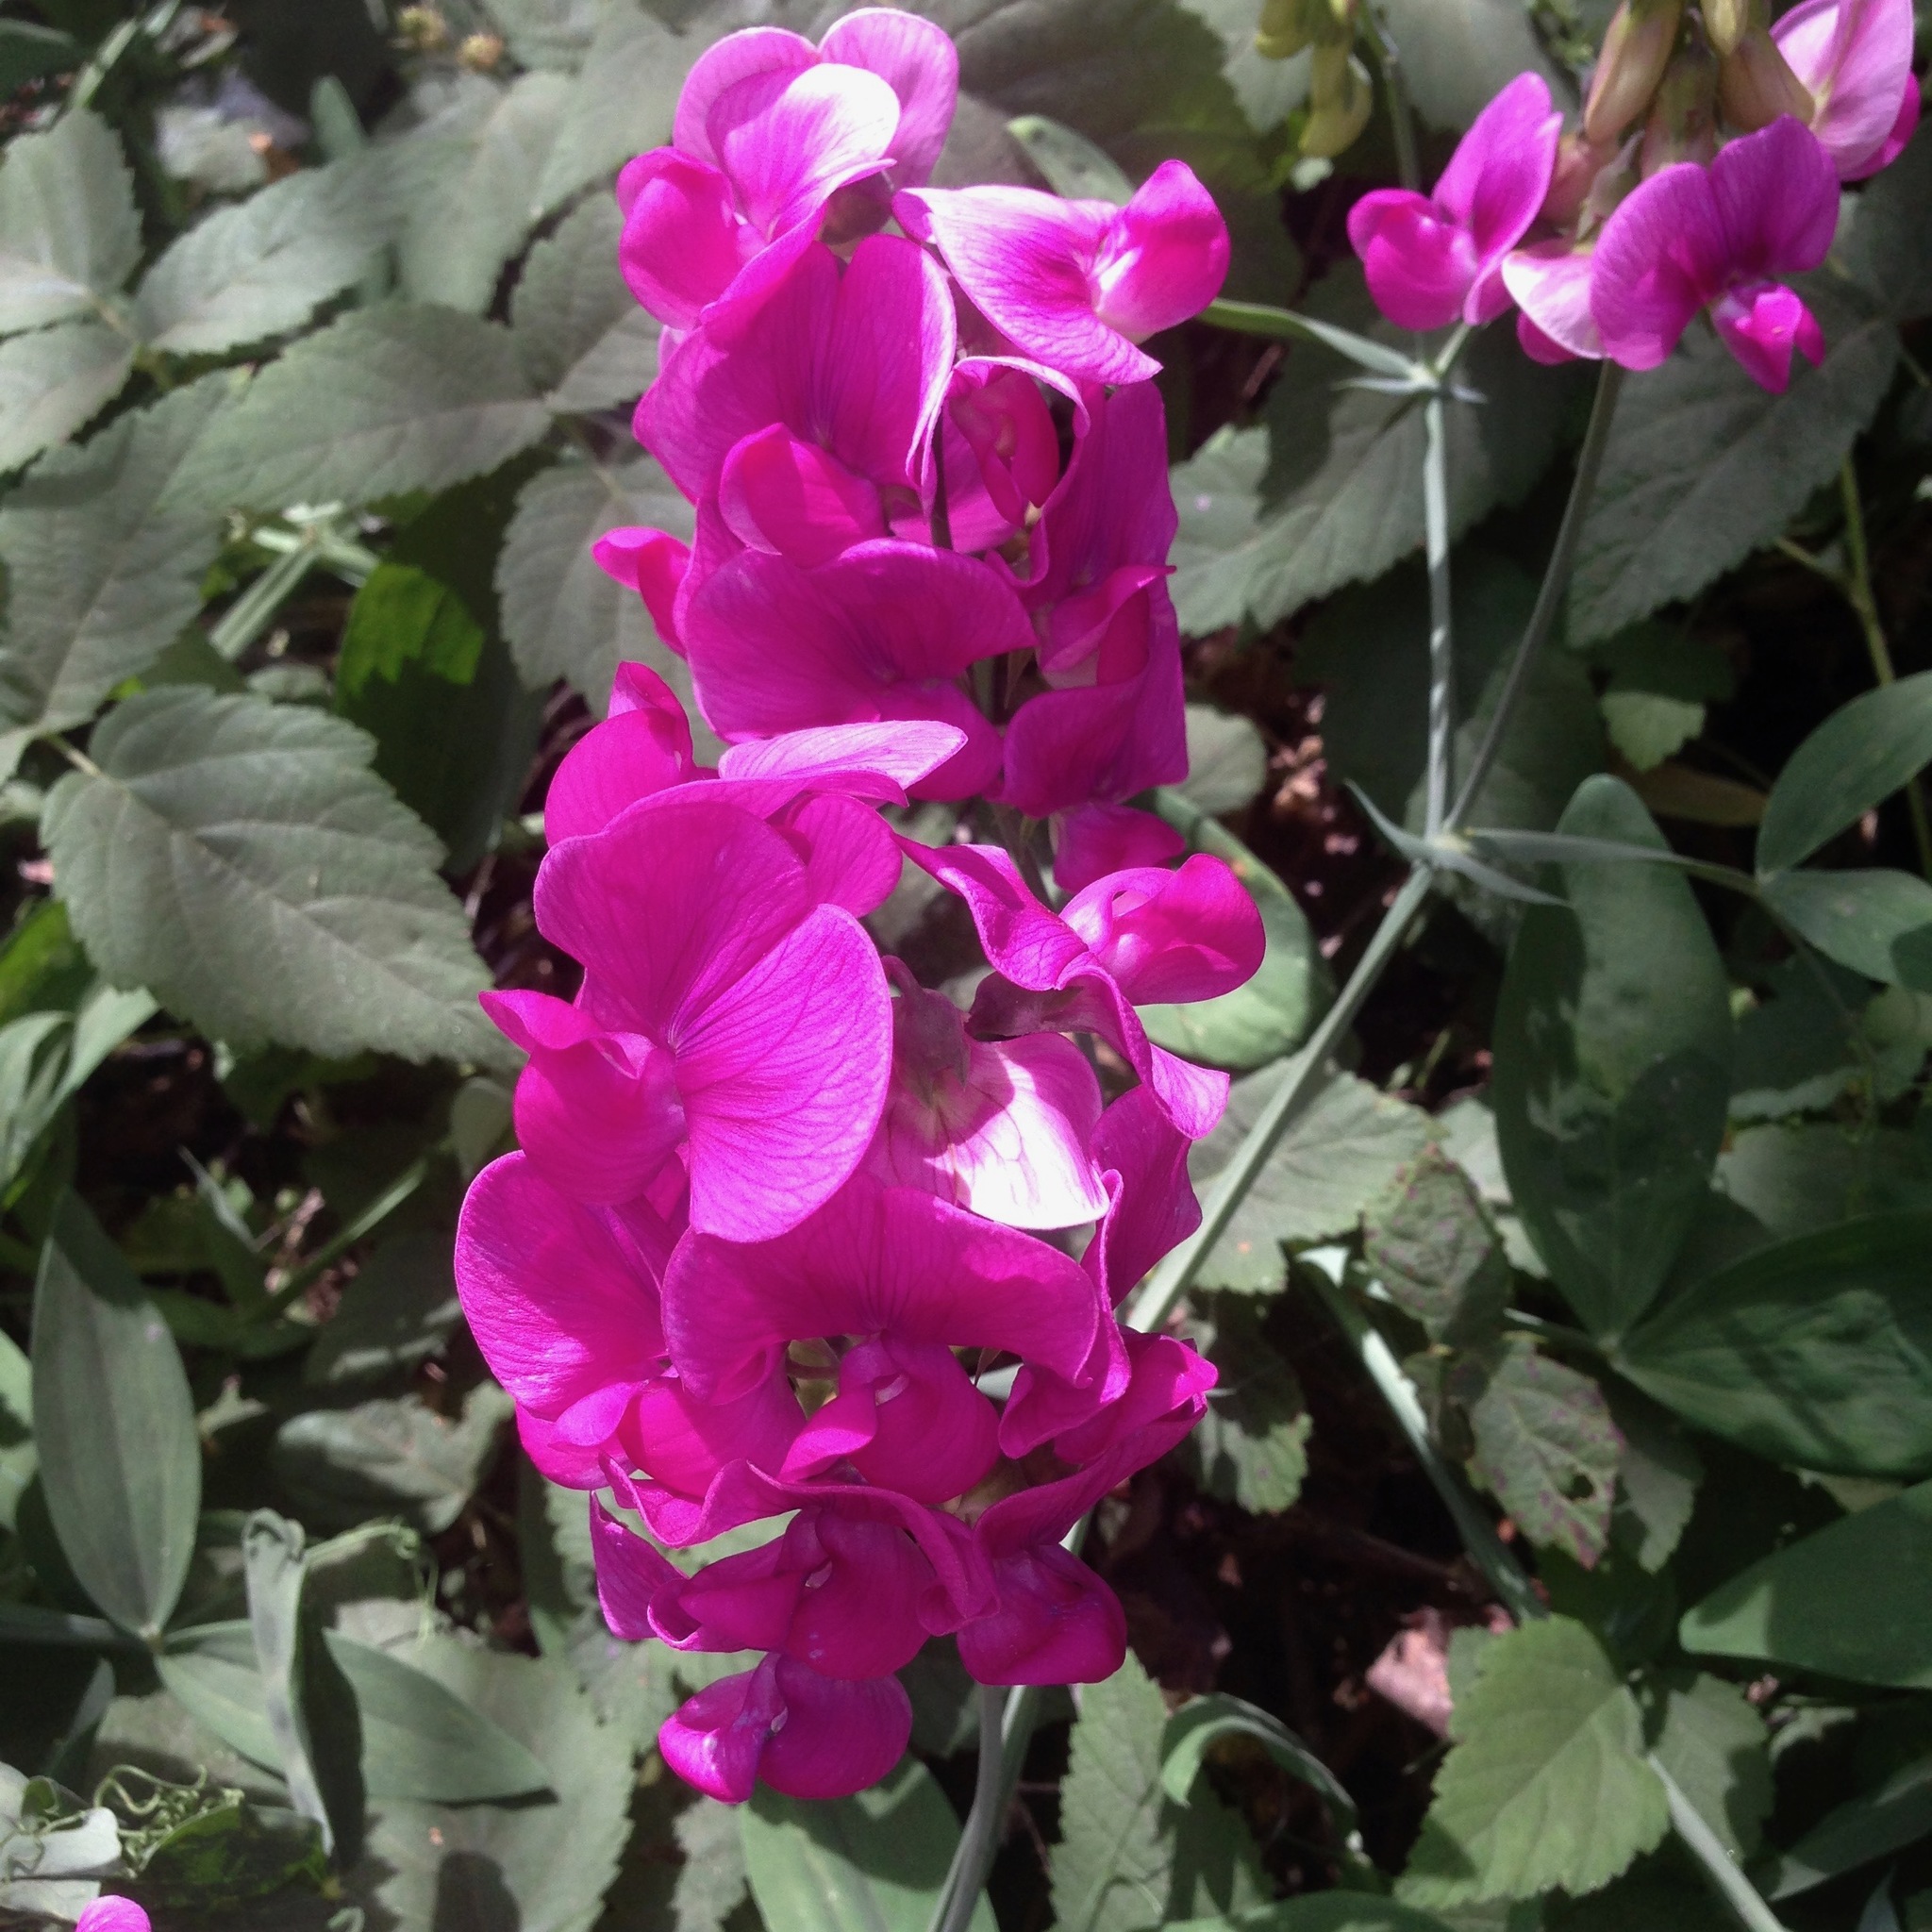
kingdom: Plantae
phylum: Tracheophyta
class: Magnoliopsida
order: Fabales
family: Fabaceae
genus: Lathyrus
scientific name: Lathyrus latifolius
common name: Perennial pea
